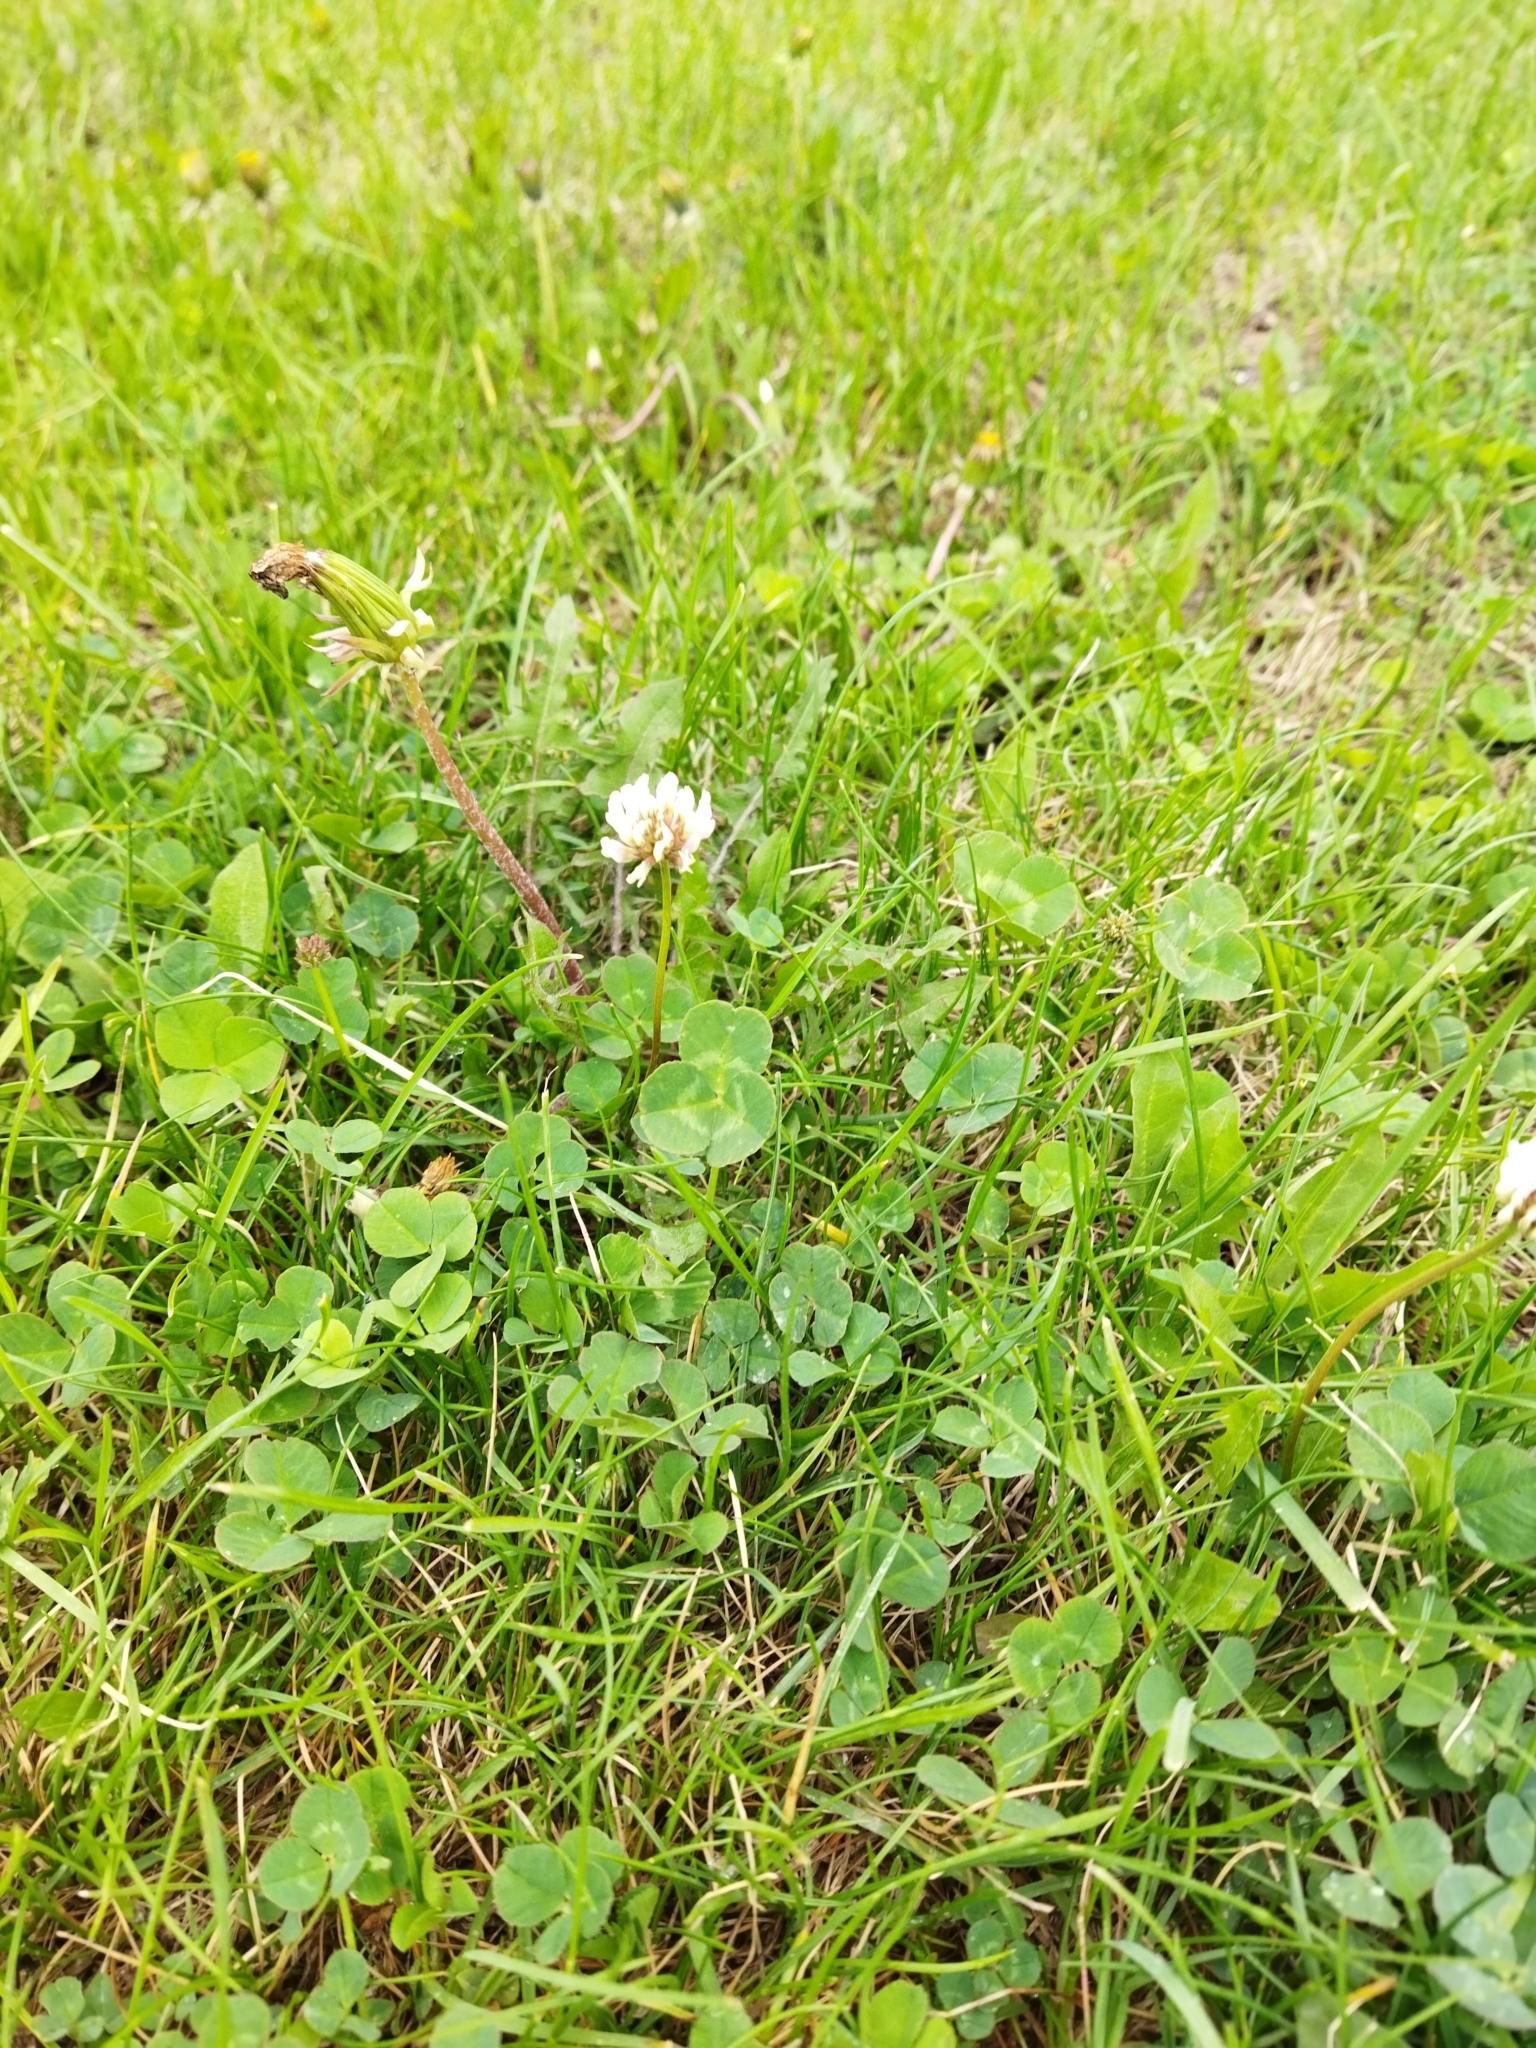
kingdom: Plantae
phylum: Tracheophyta
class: Magnoliopsida
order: Fabales
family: Fabaceae
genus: Trifolium
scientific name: Trifolium repens
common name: White clover
